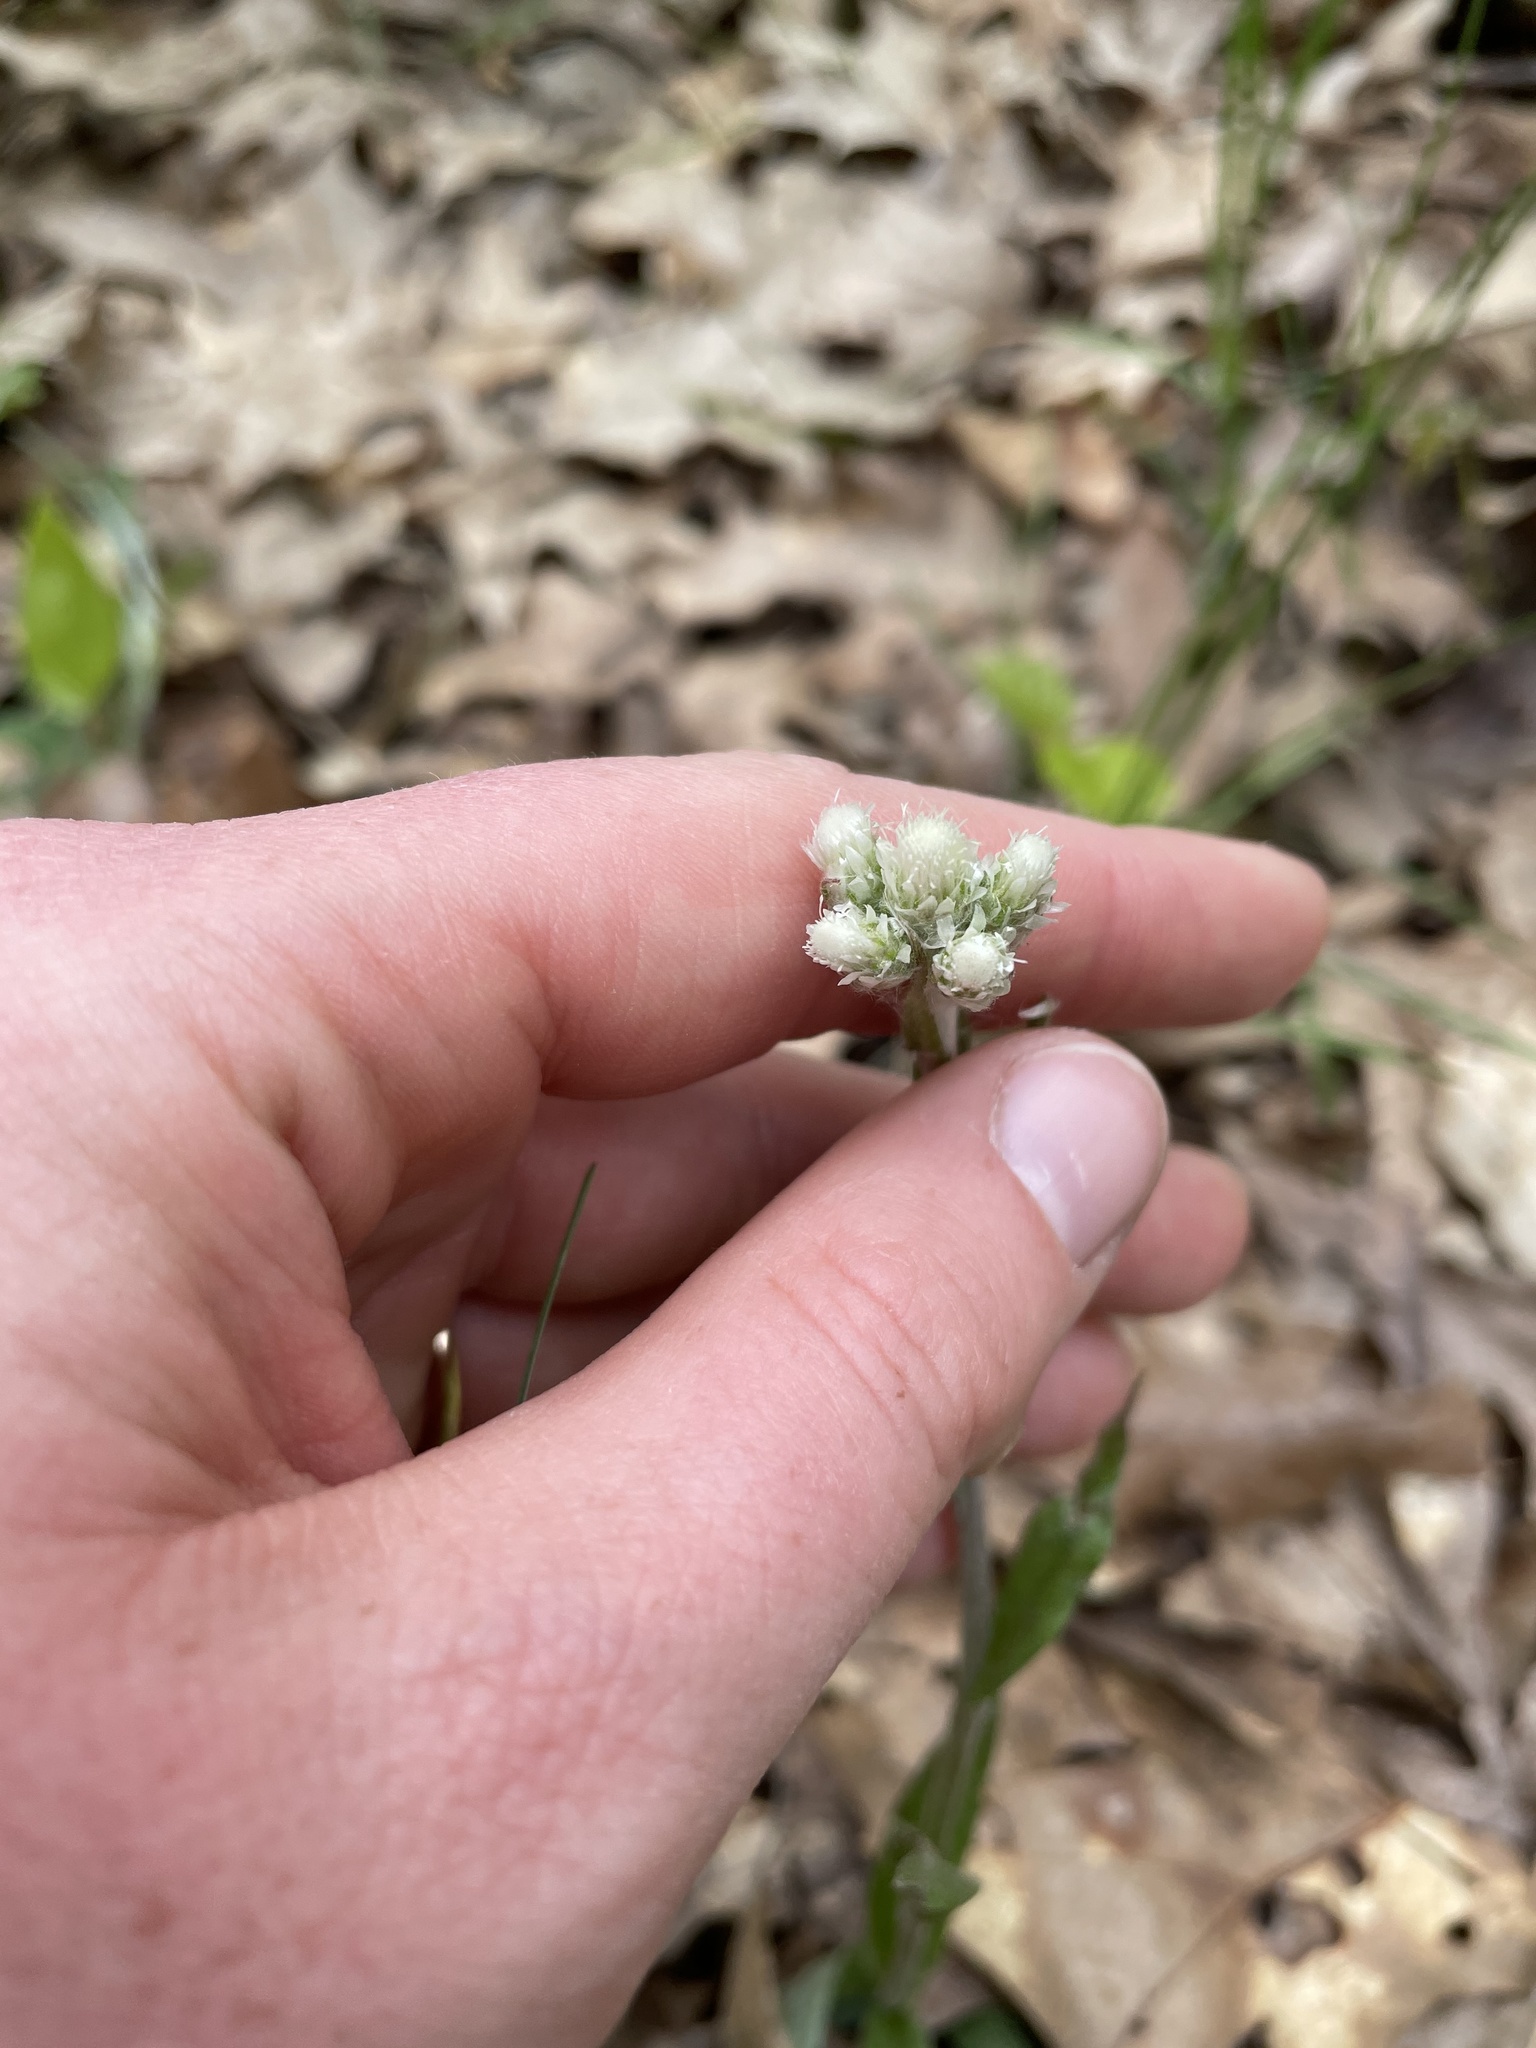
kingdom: Plantae
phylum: Tracheophyta
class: Magnoliopsida
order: Asterales
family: Asteraceae
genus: Antennaria
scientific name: Antennaria neglecta
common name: Field pussytoes
